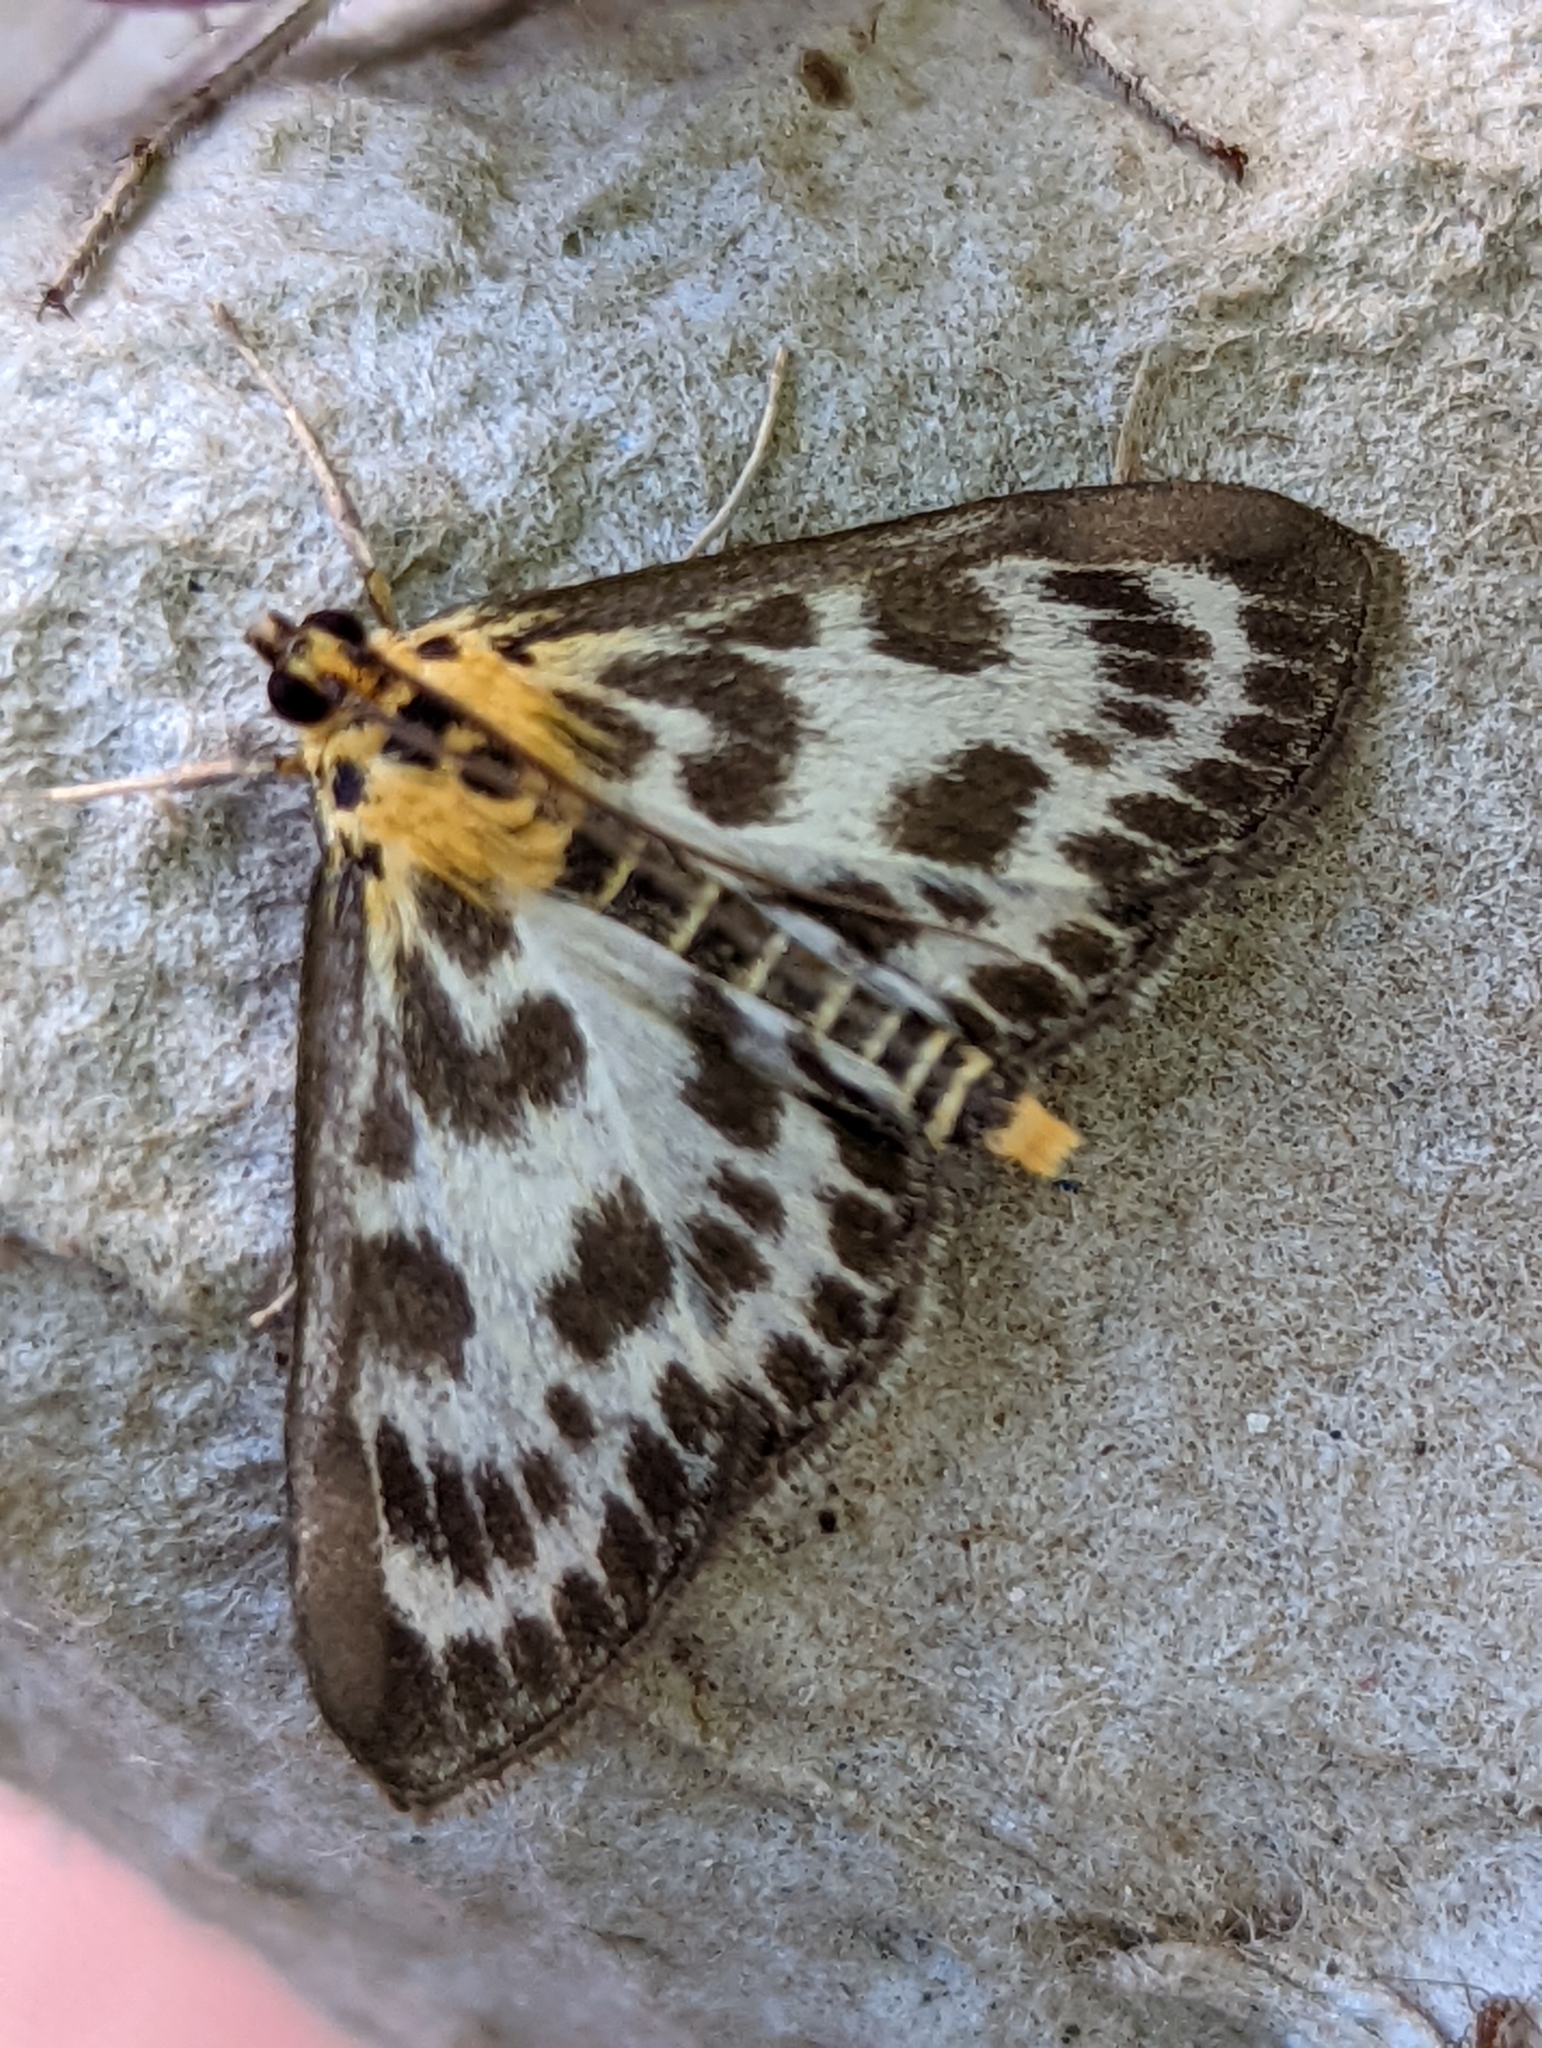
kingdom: Animalia
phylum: Arthropoda
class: Insecta
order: Lepidoptera
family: Crambidae
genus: Anania
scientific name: Anania hortulata
